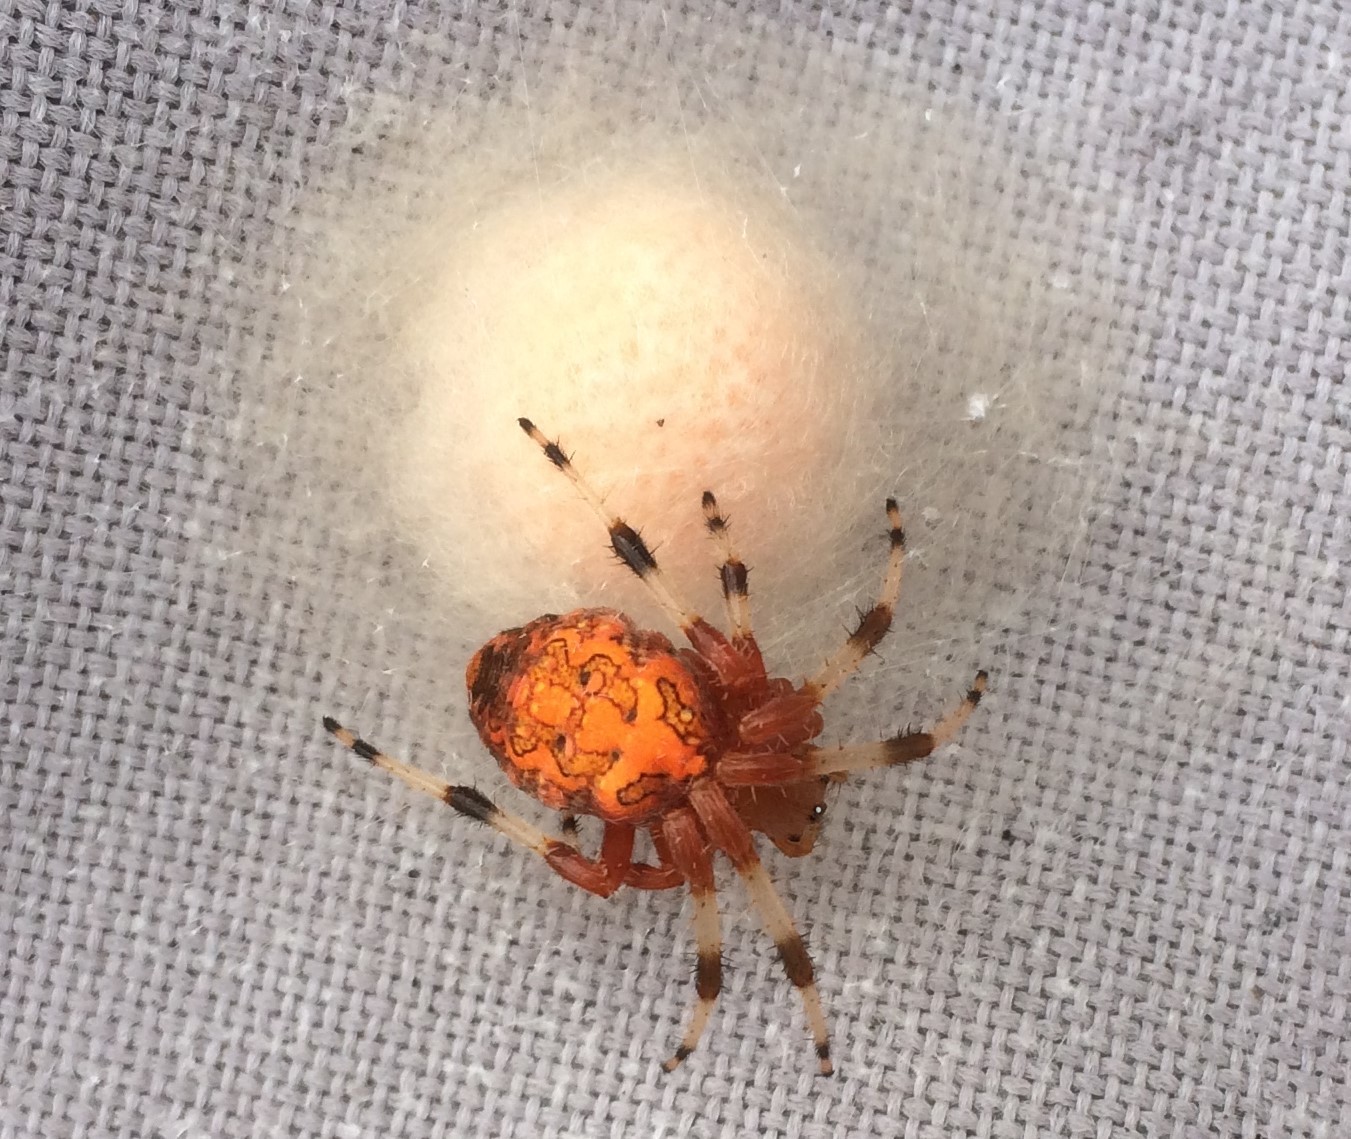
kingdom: Animalia
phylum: Arthropoda
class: Arachnida
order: Araneae
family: Araneidae
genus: Araneus
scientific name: Araneus marmoreus
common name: Marbled orbweaver
